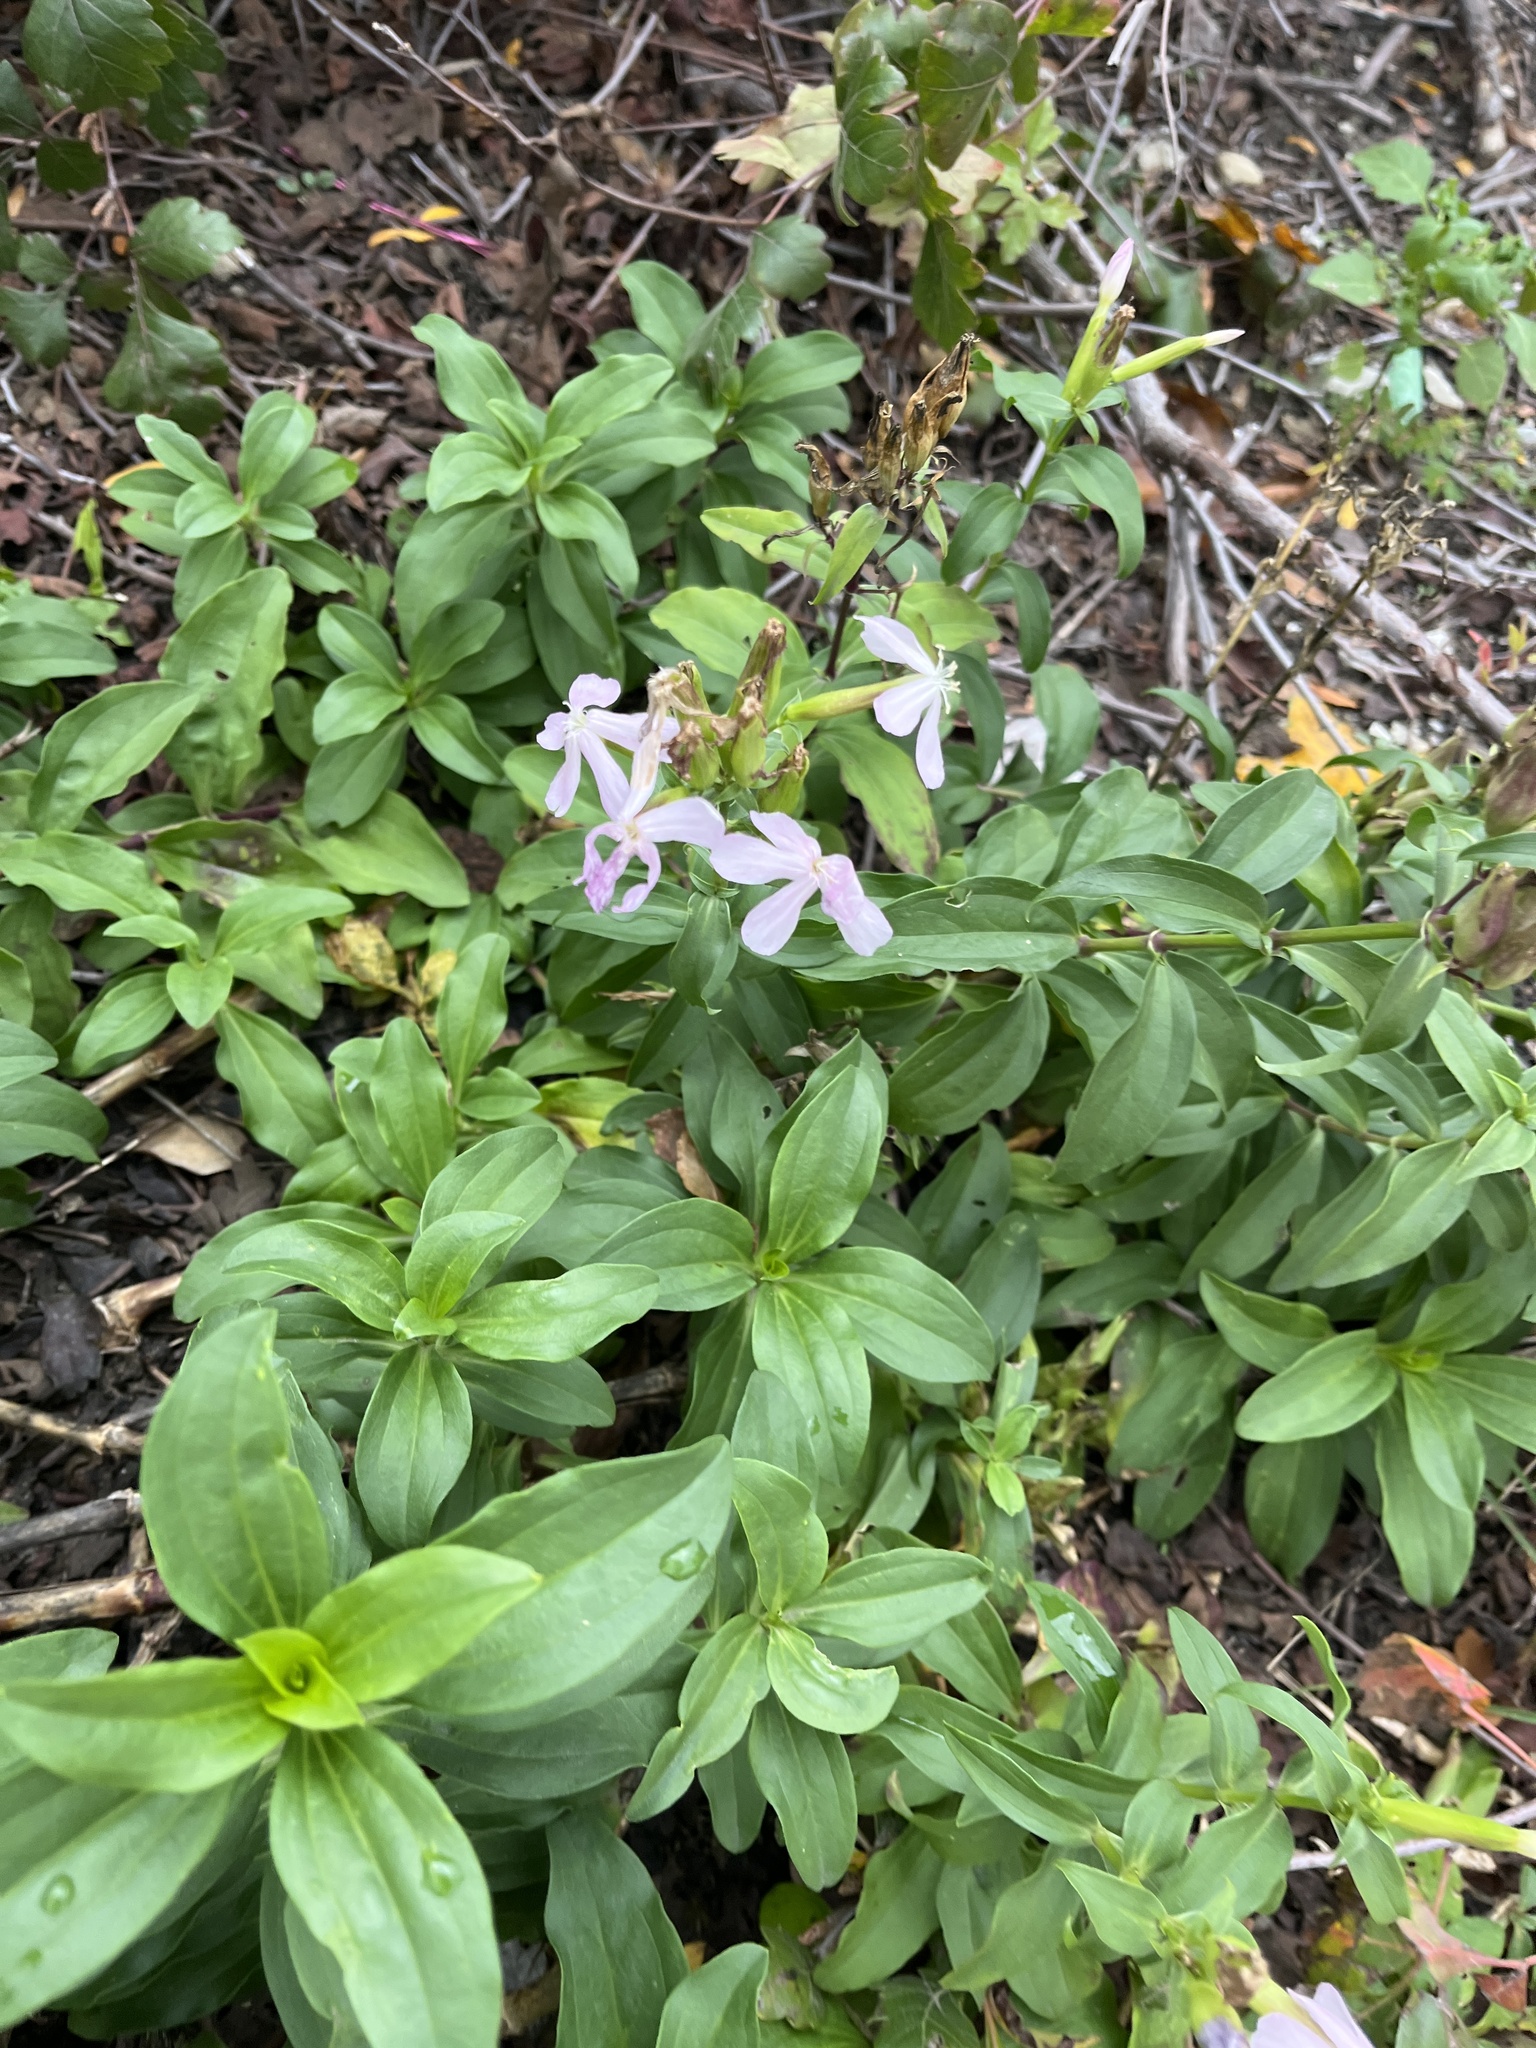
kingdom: Plantae
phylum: Tracheophyta
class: Magnoliopsida
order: Caryophyllales
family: Caryophyllaceae
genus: Saponaria
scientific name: Saponaria officinalis
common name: Soapwort
